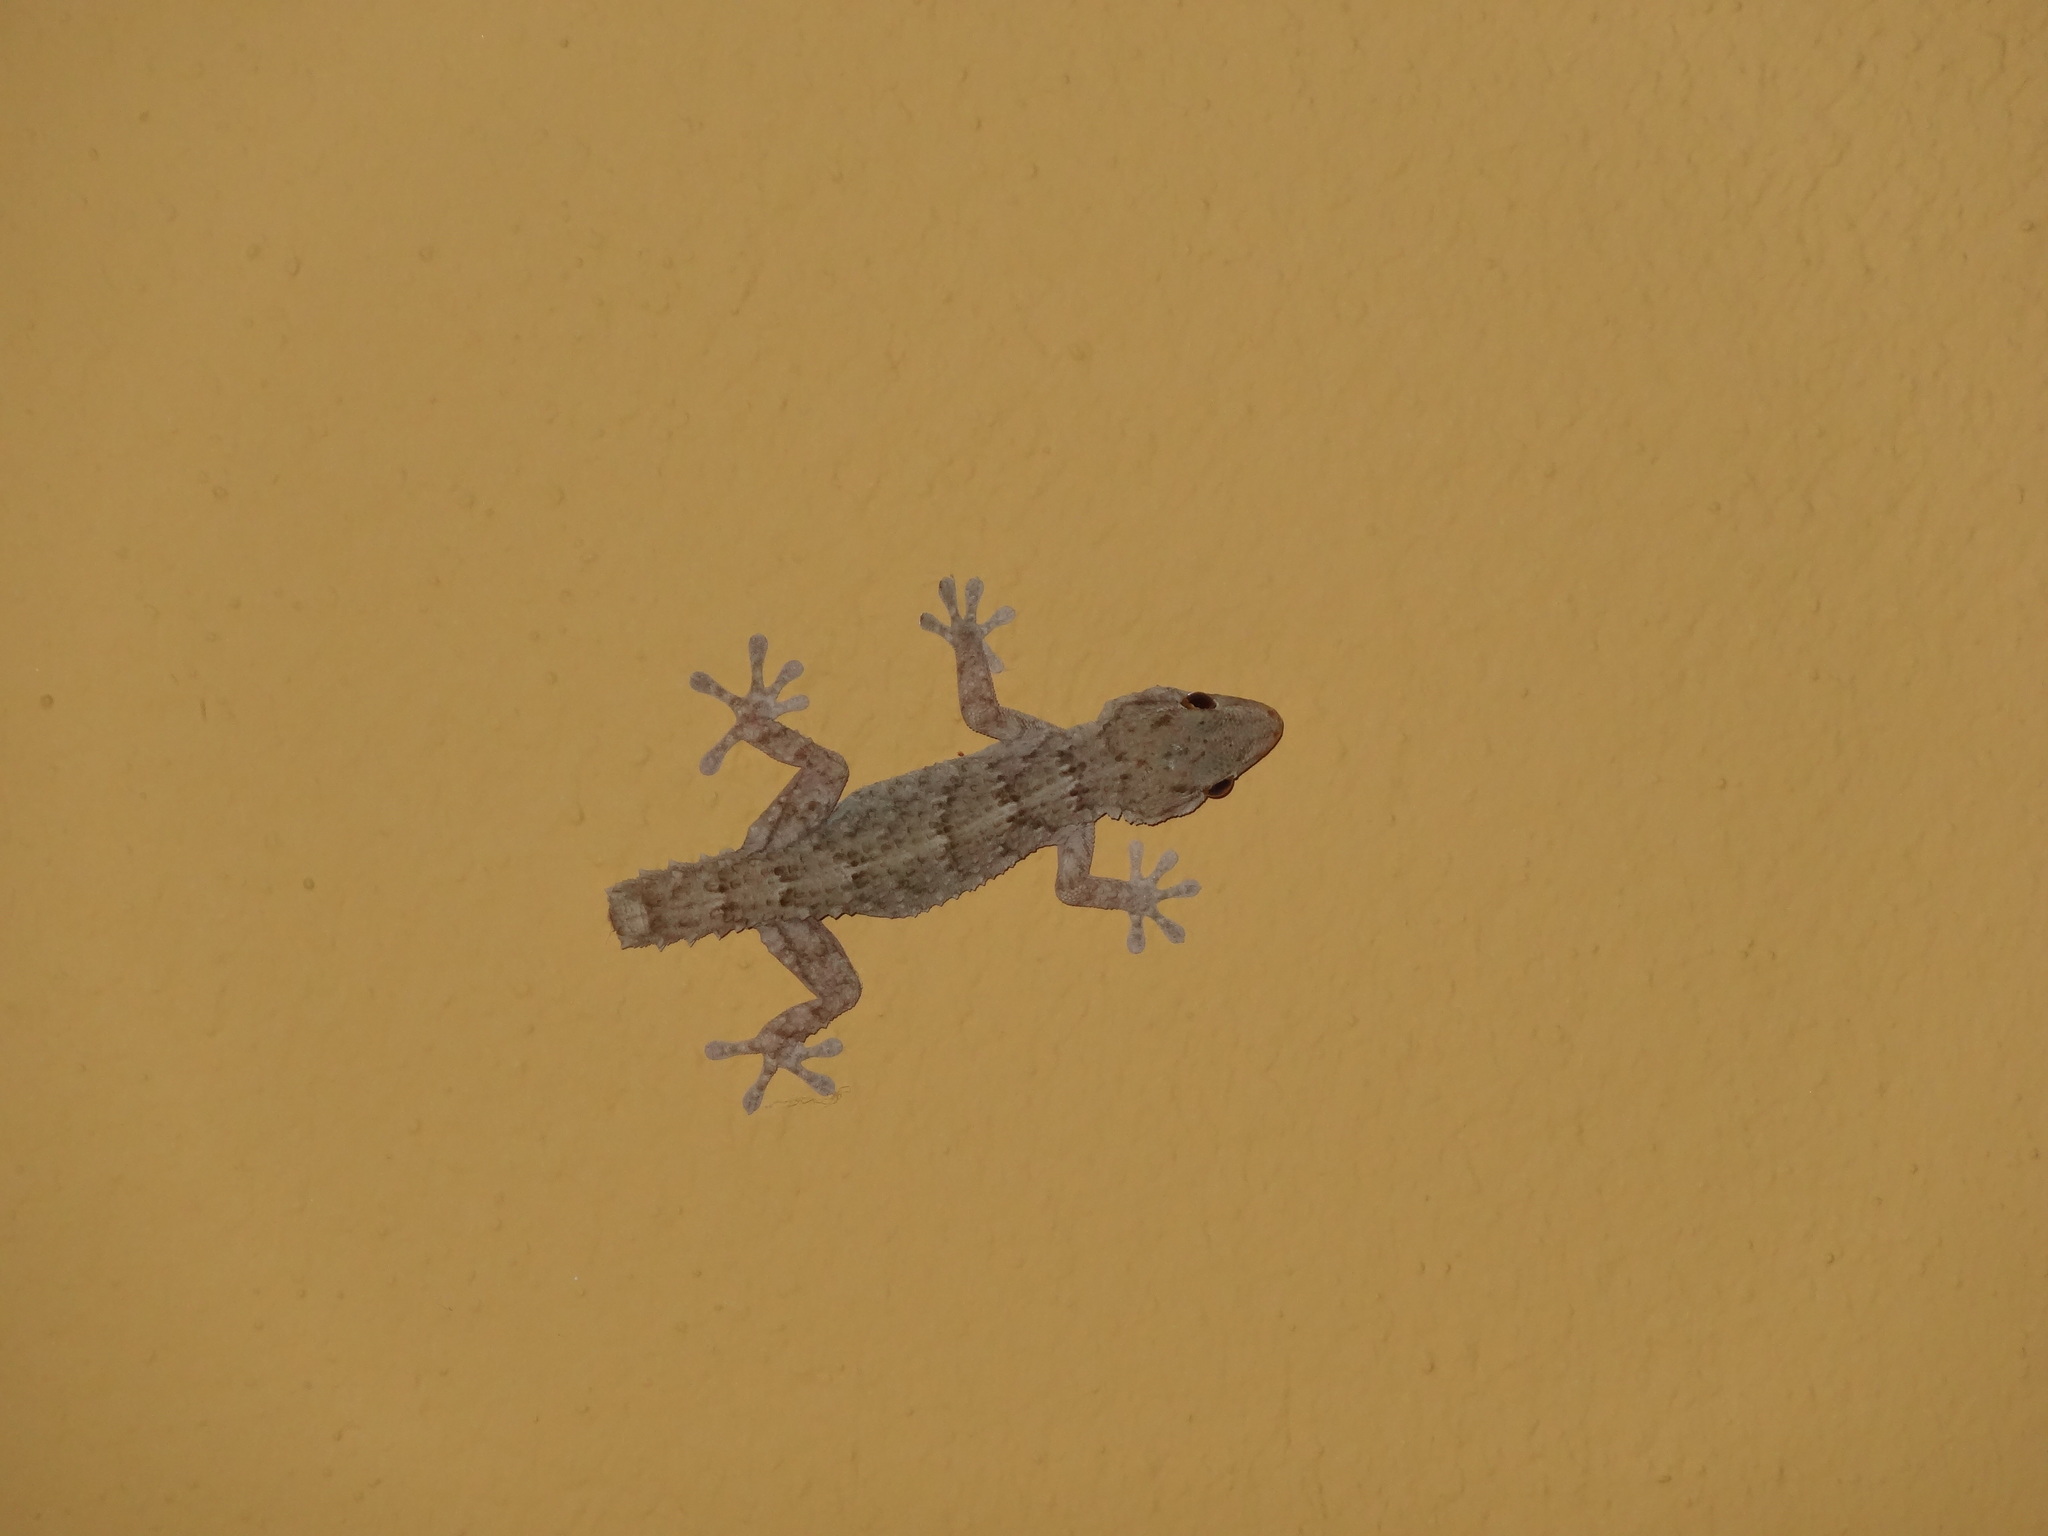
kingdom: Animalia
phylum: Chordata
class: Squamata
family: Phyllodactylidae
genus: Tarentola
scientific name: Tarentola mauritanica
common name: Moorish gecko
